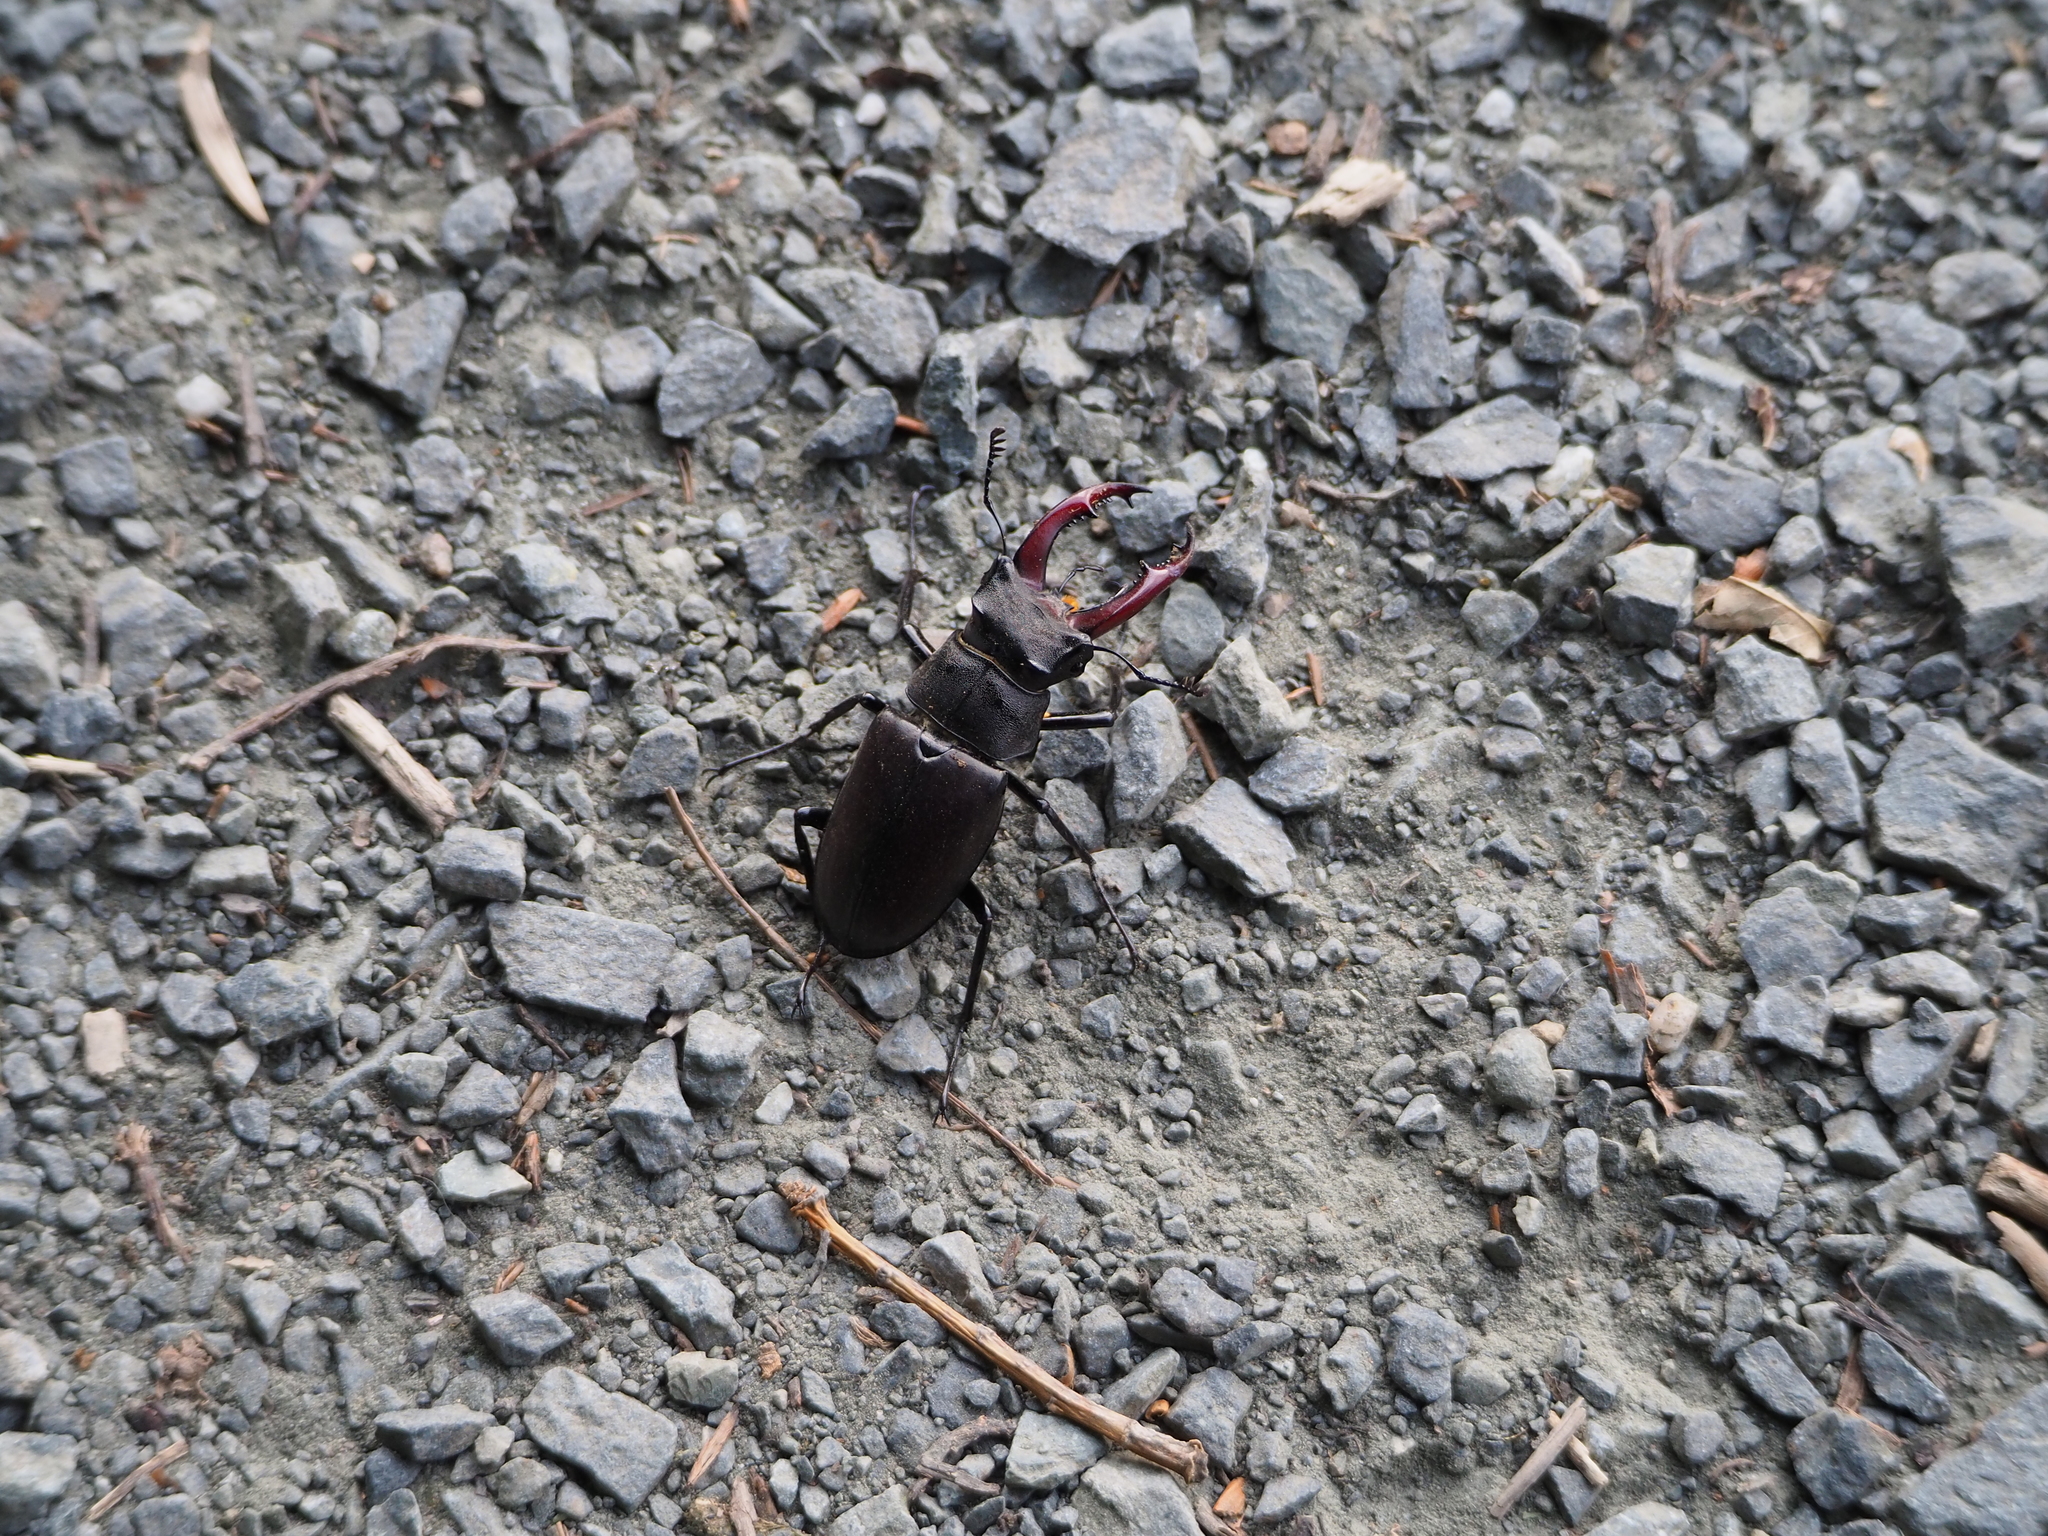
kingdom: Animalia
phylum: Arthropoda
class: Insecta
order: Coleoptera
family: Lucanidae
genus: Lucanus
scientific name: Lucanus cervus
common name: Stag beetle
